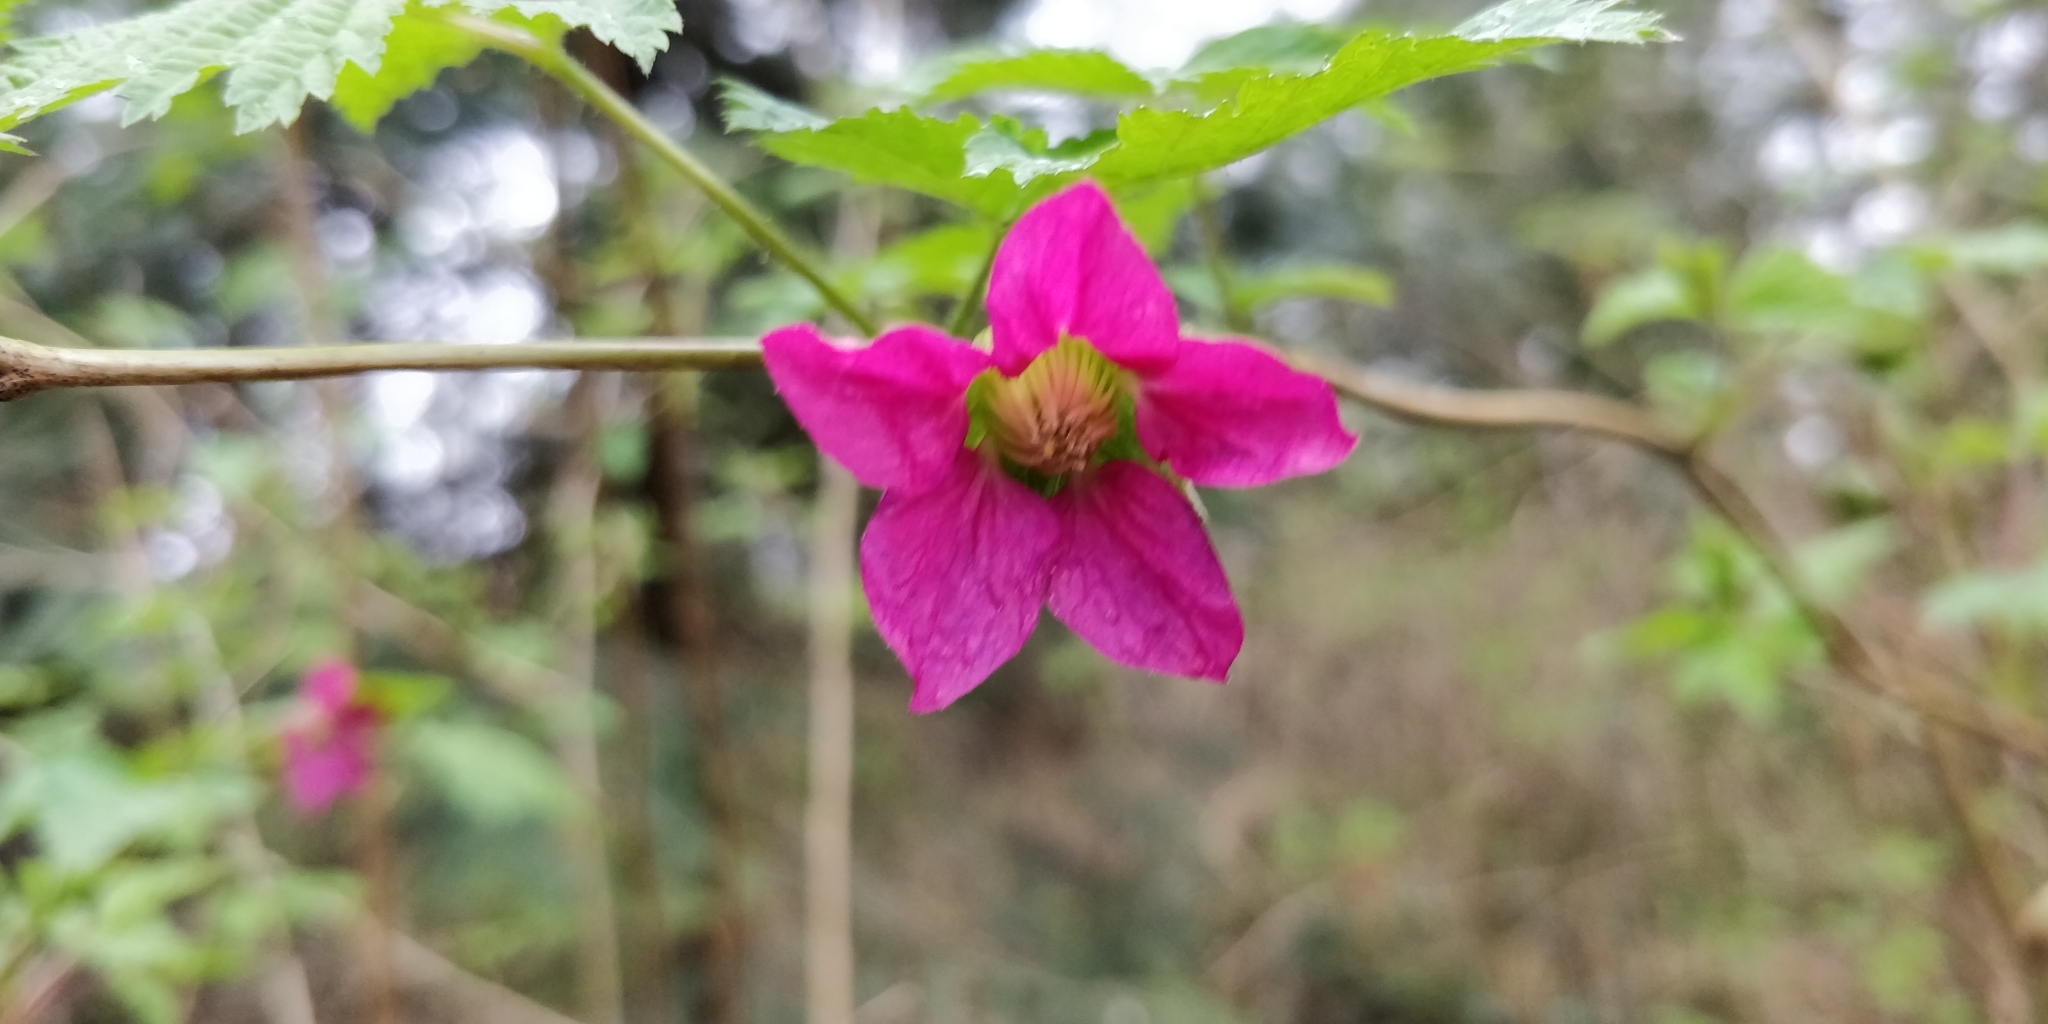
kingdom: Plantae
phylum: Tracheophyta
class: Magnoliopsida
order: Rosales
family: Rosaceae
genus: Rubus
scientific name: Rubus spectabilis
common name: Salmonberry
